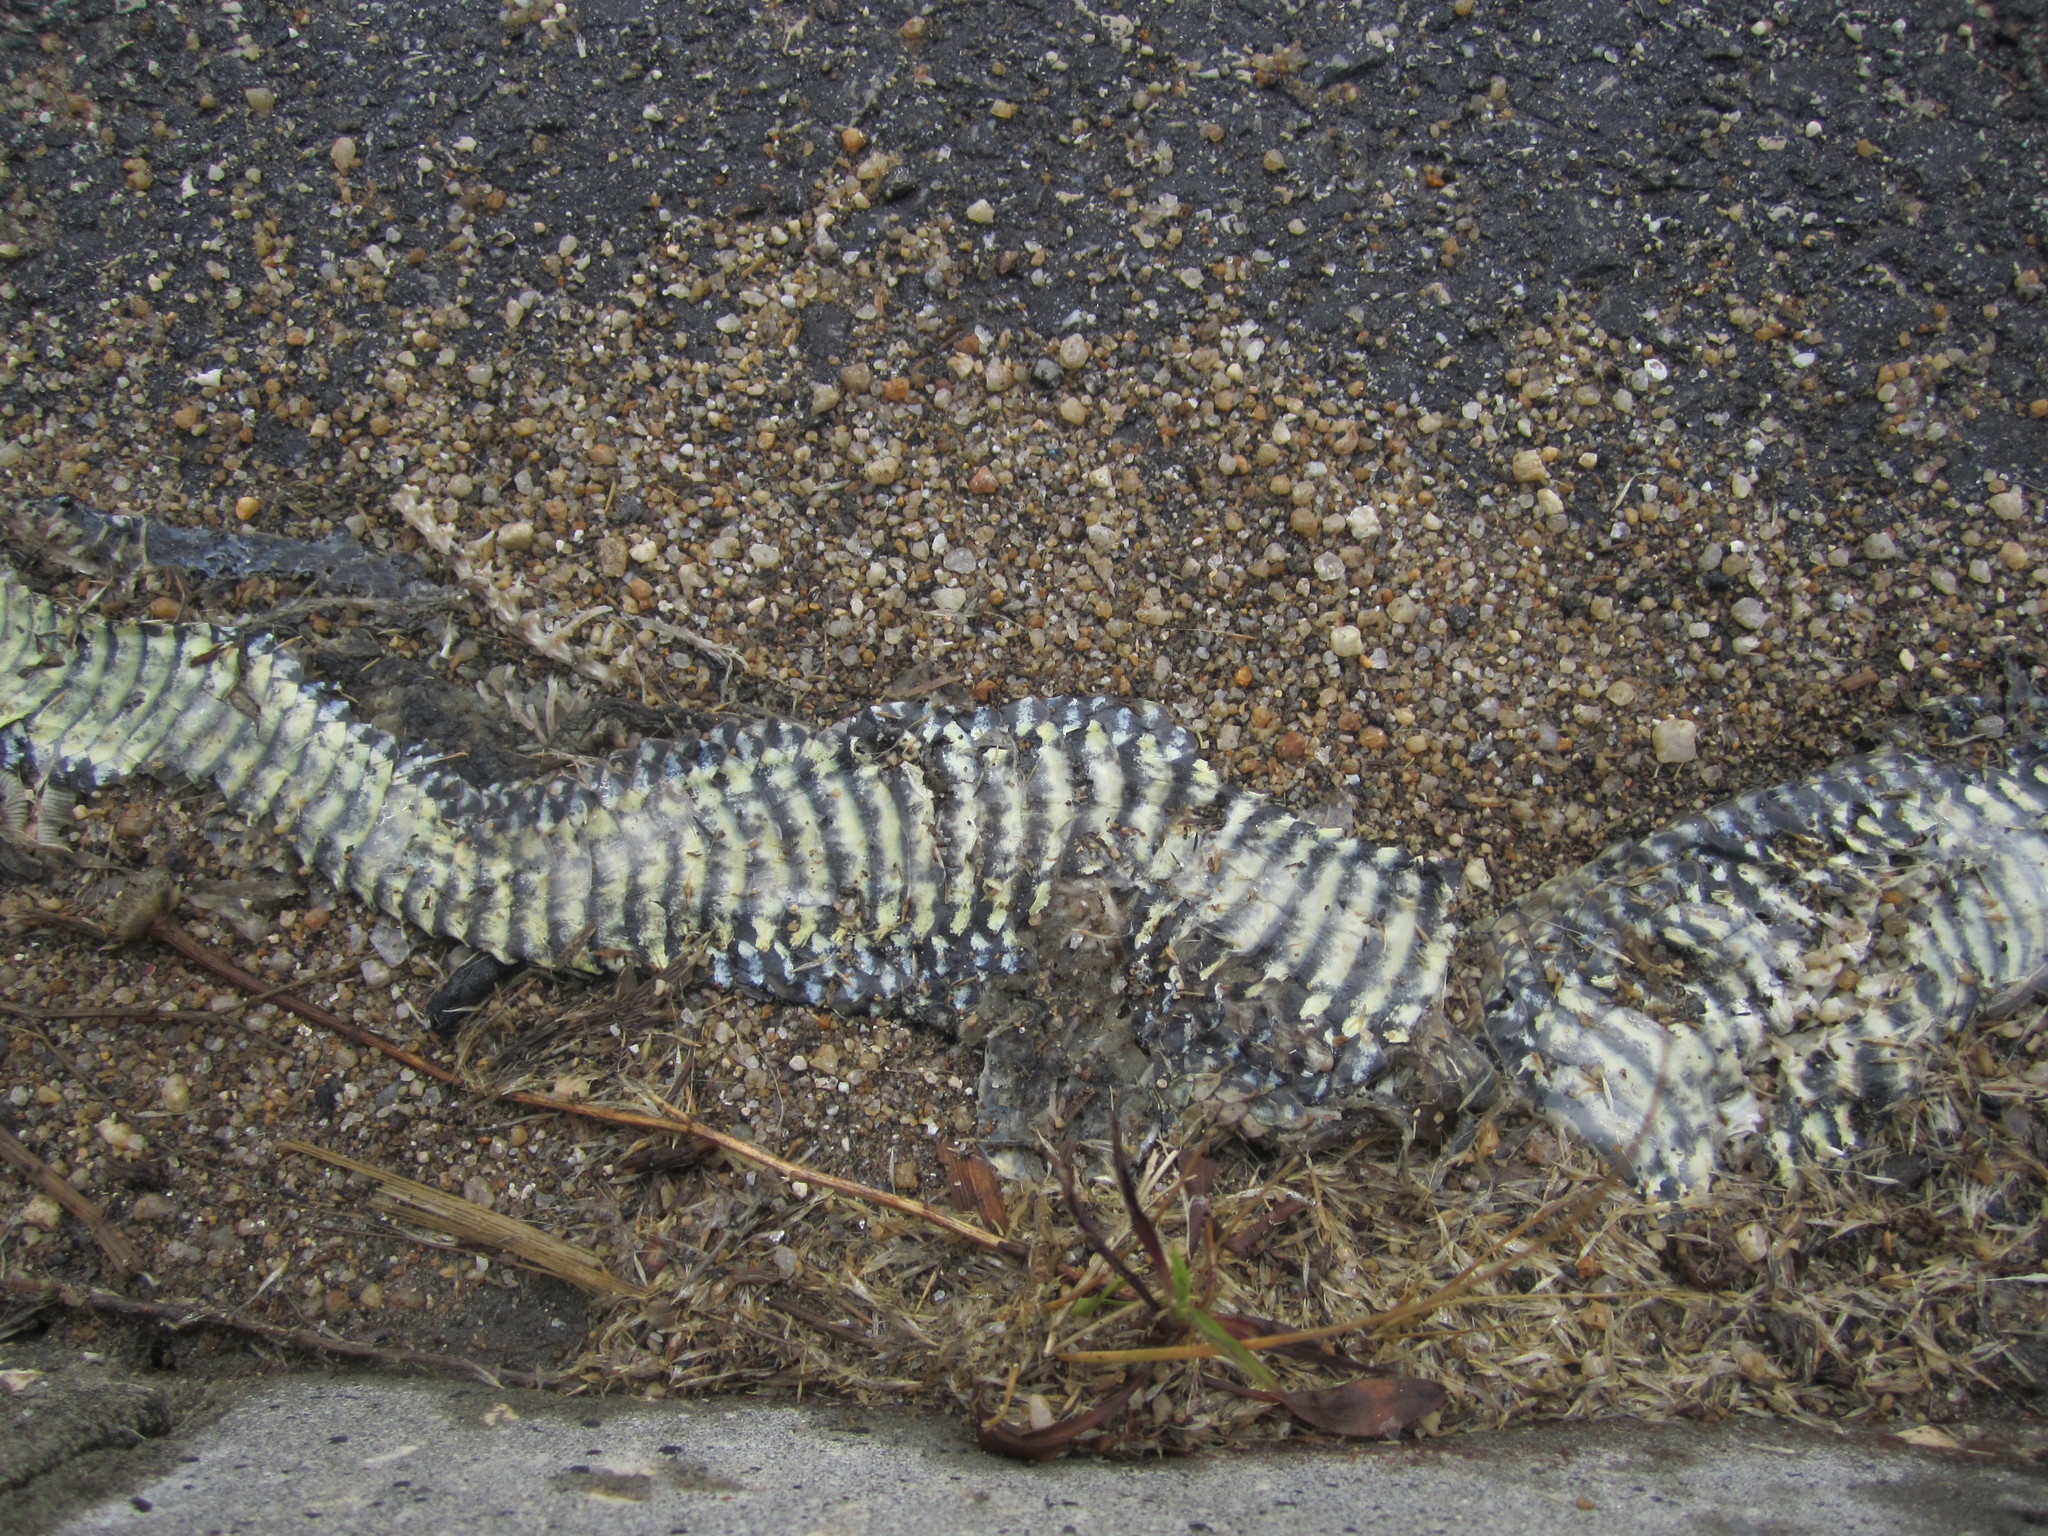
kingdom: Animalia
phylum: Chordata
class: Squamata
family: Psammophiidae
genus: Malpolon
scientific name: Malpolon monspessulanus
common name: Montpellier snake
